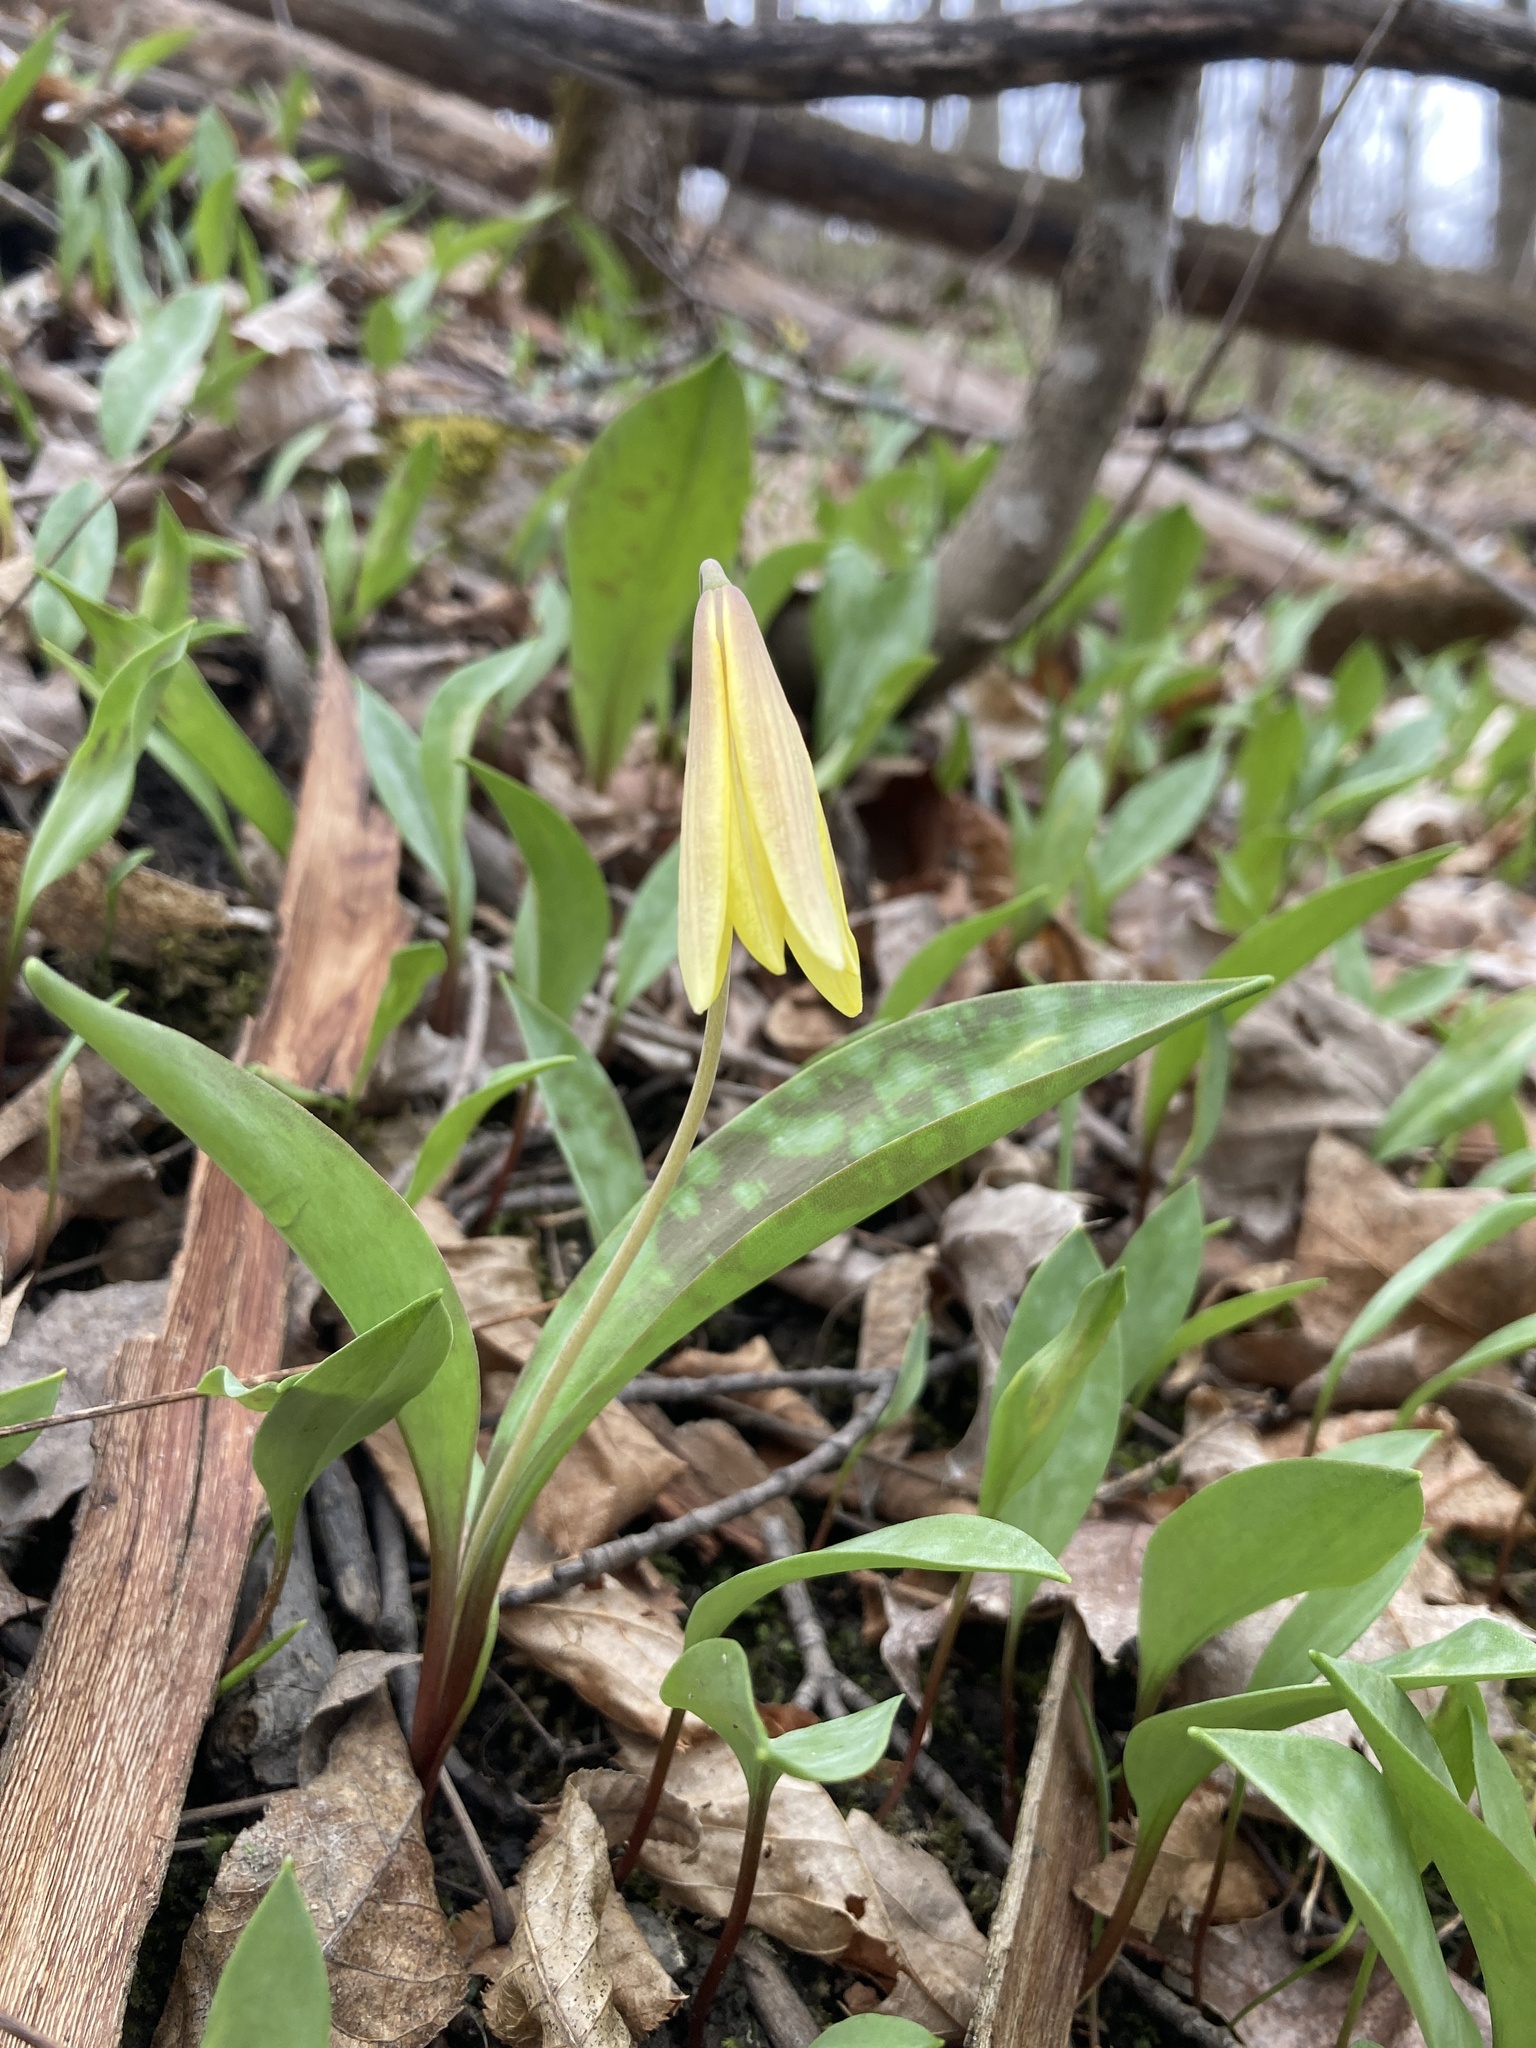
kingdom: Plantae
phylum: Tracheophyta
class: Liliopsida
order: Liliales
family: Liliaceae
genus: Erythronium
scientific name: Erythronium americanum
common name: Yellow adder's-tongue
